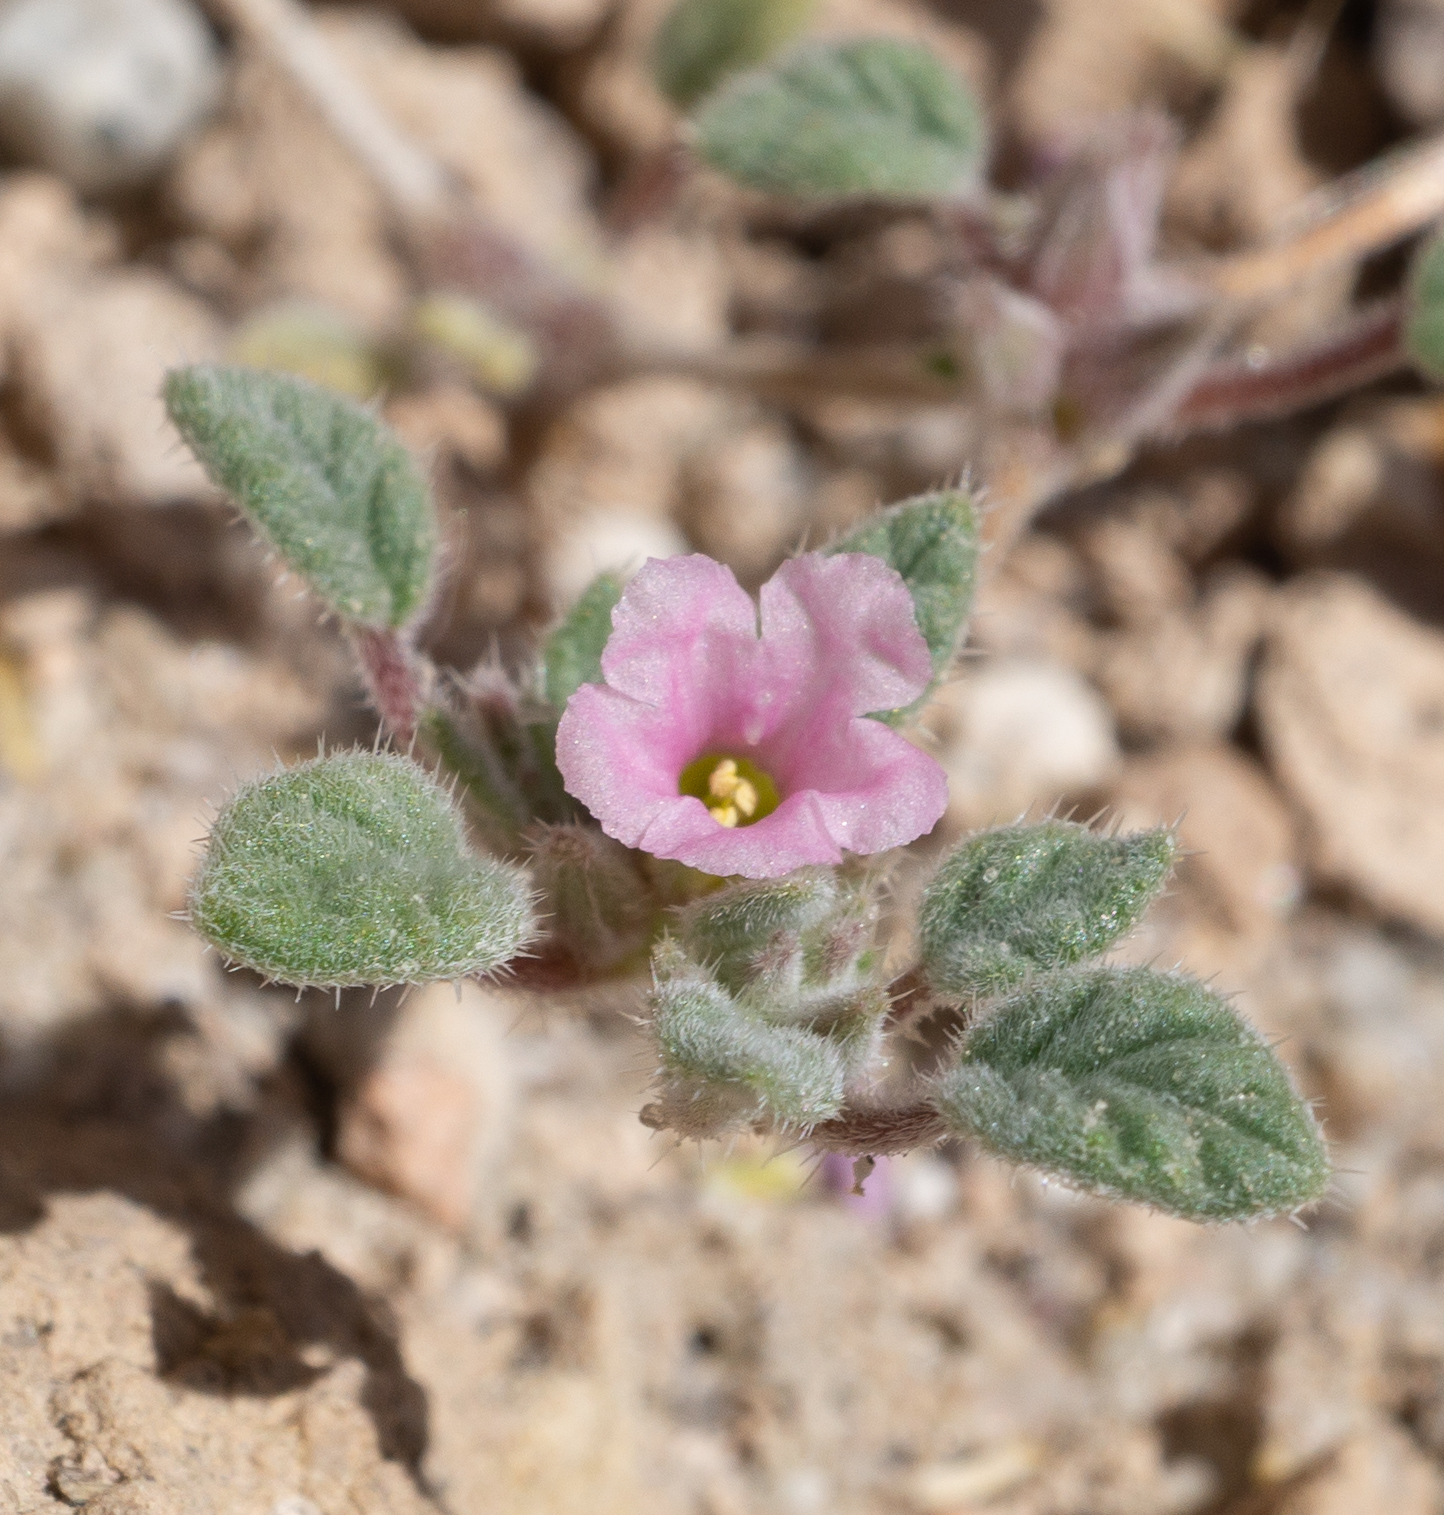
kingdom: Plantae
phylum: Tracheophyta
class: Magnoliopsida
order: Boraginales
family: Ehretiaceae
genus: Tiquilia
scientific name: Tiquilia nuttallii
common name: Rosette tiquilia
